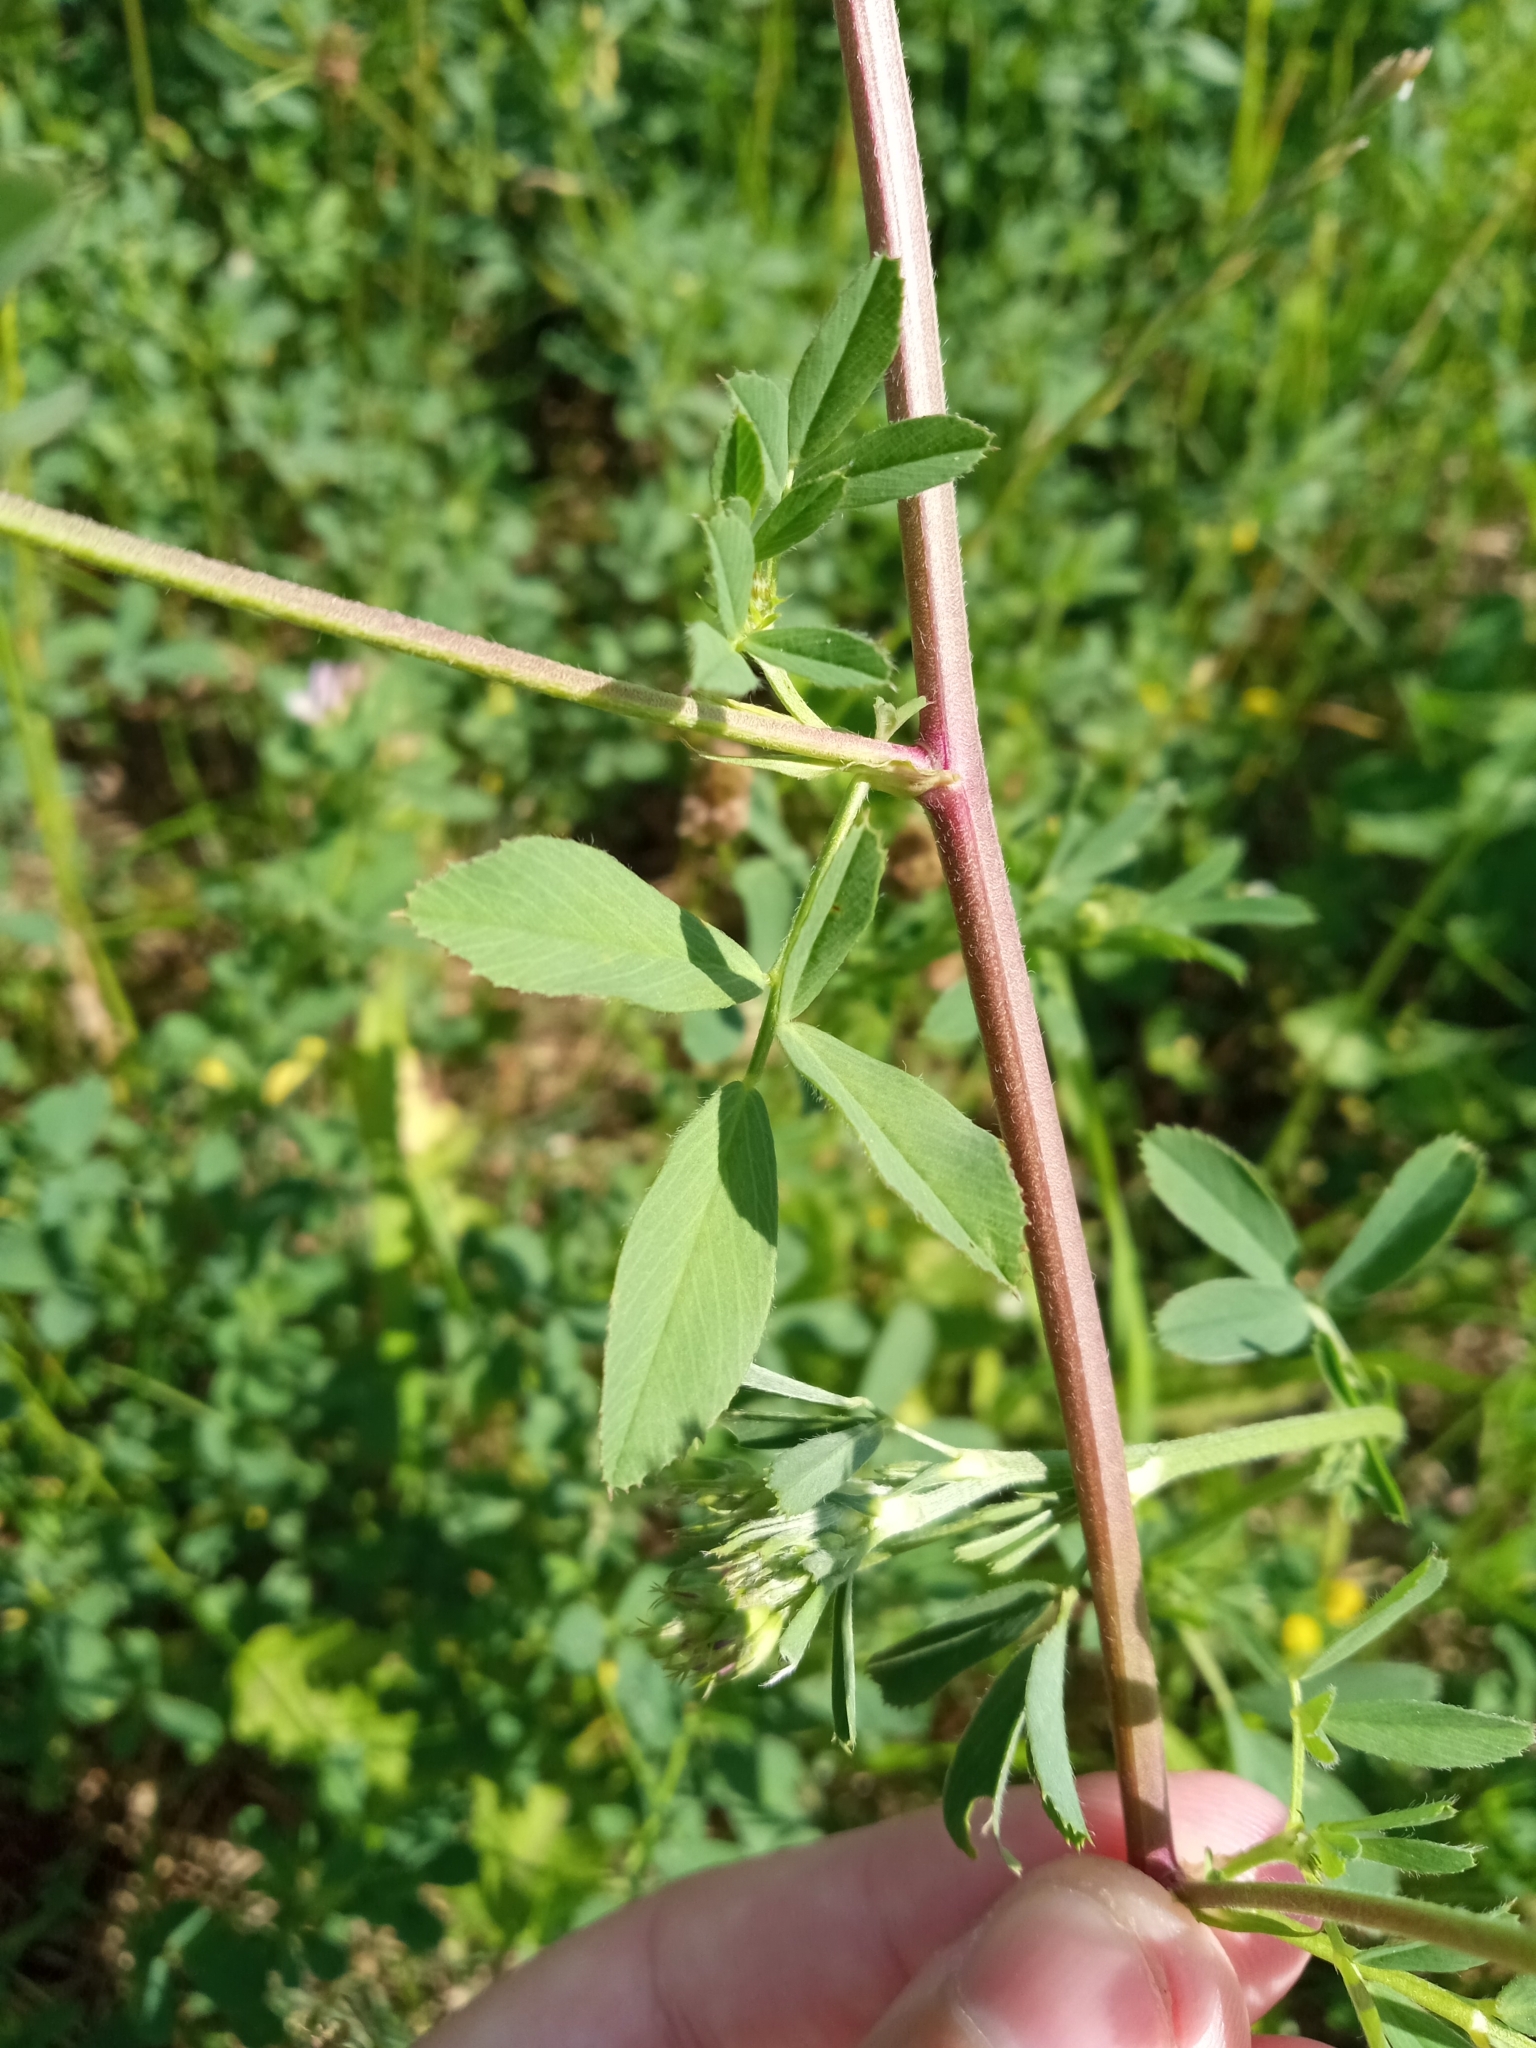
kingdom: Plantae
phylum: Tracheophyta
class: Magnoliopsida
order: Fabales
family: Fabaceae
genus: Medicago
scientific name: Medicago varia
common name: Sand lucerne
